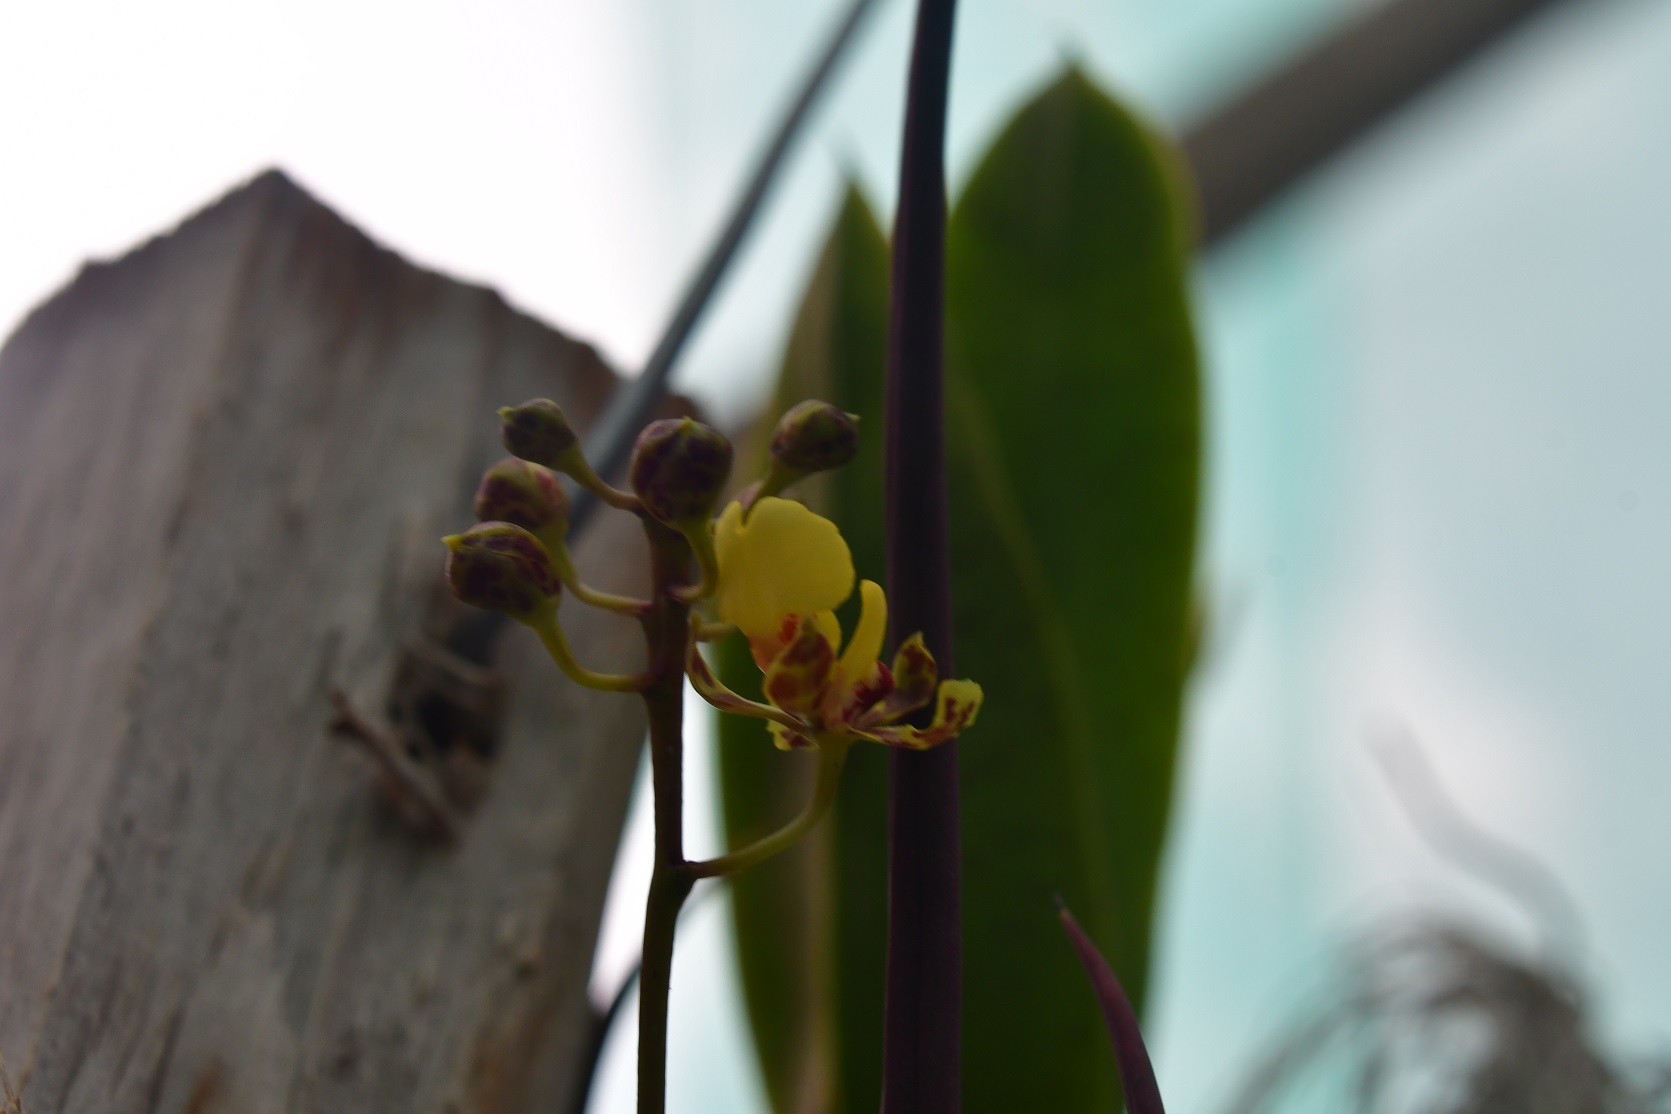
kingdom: Plantae
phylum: Tracheophyta
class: Liliopsida
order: Asparagales
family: Orchidaceae
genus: Trichocentrum
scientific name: Trichocentrum ascendens
